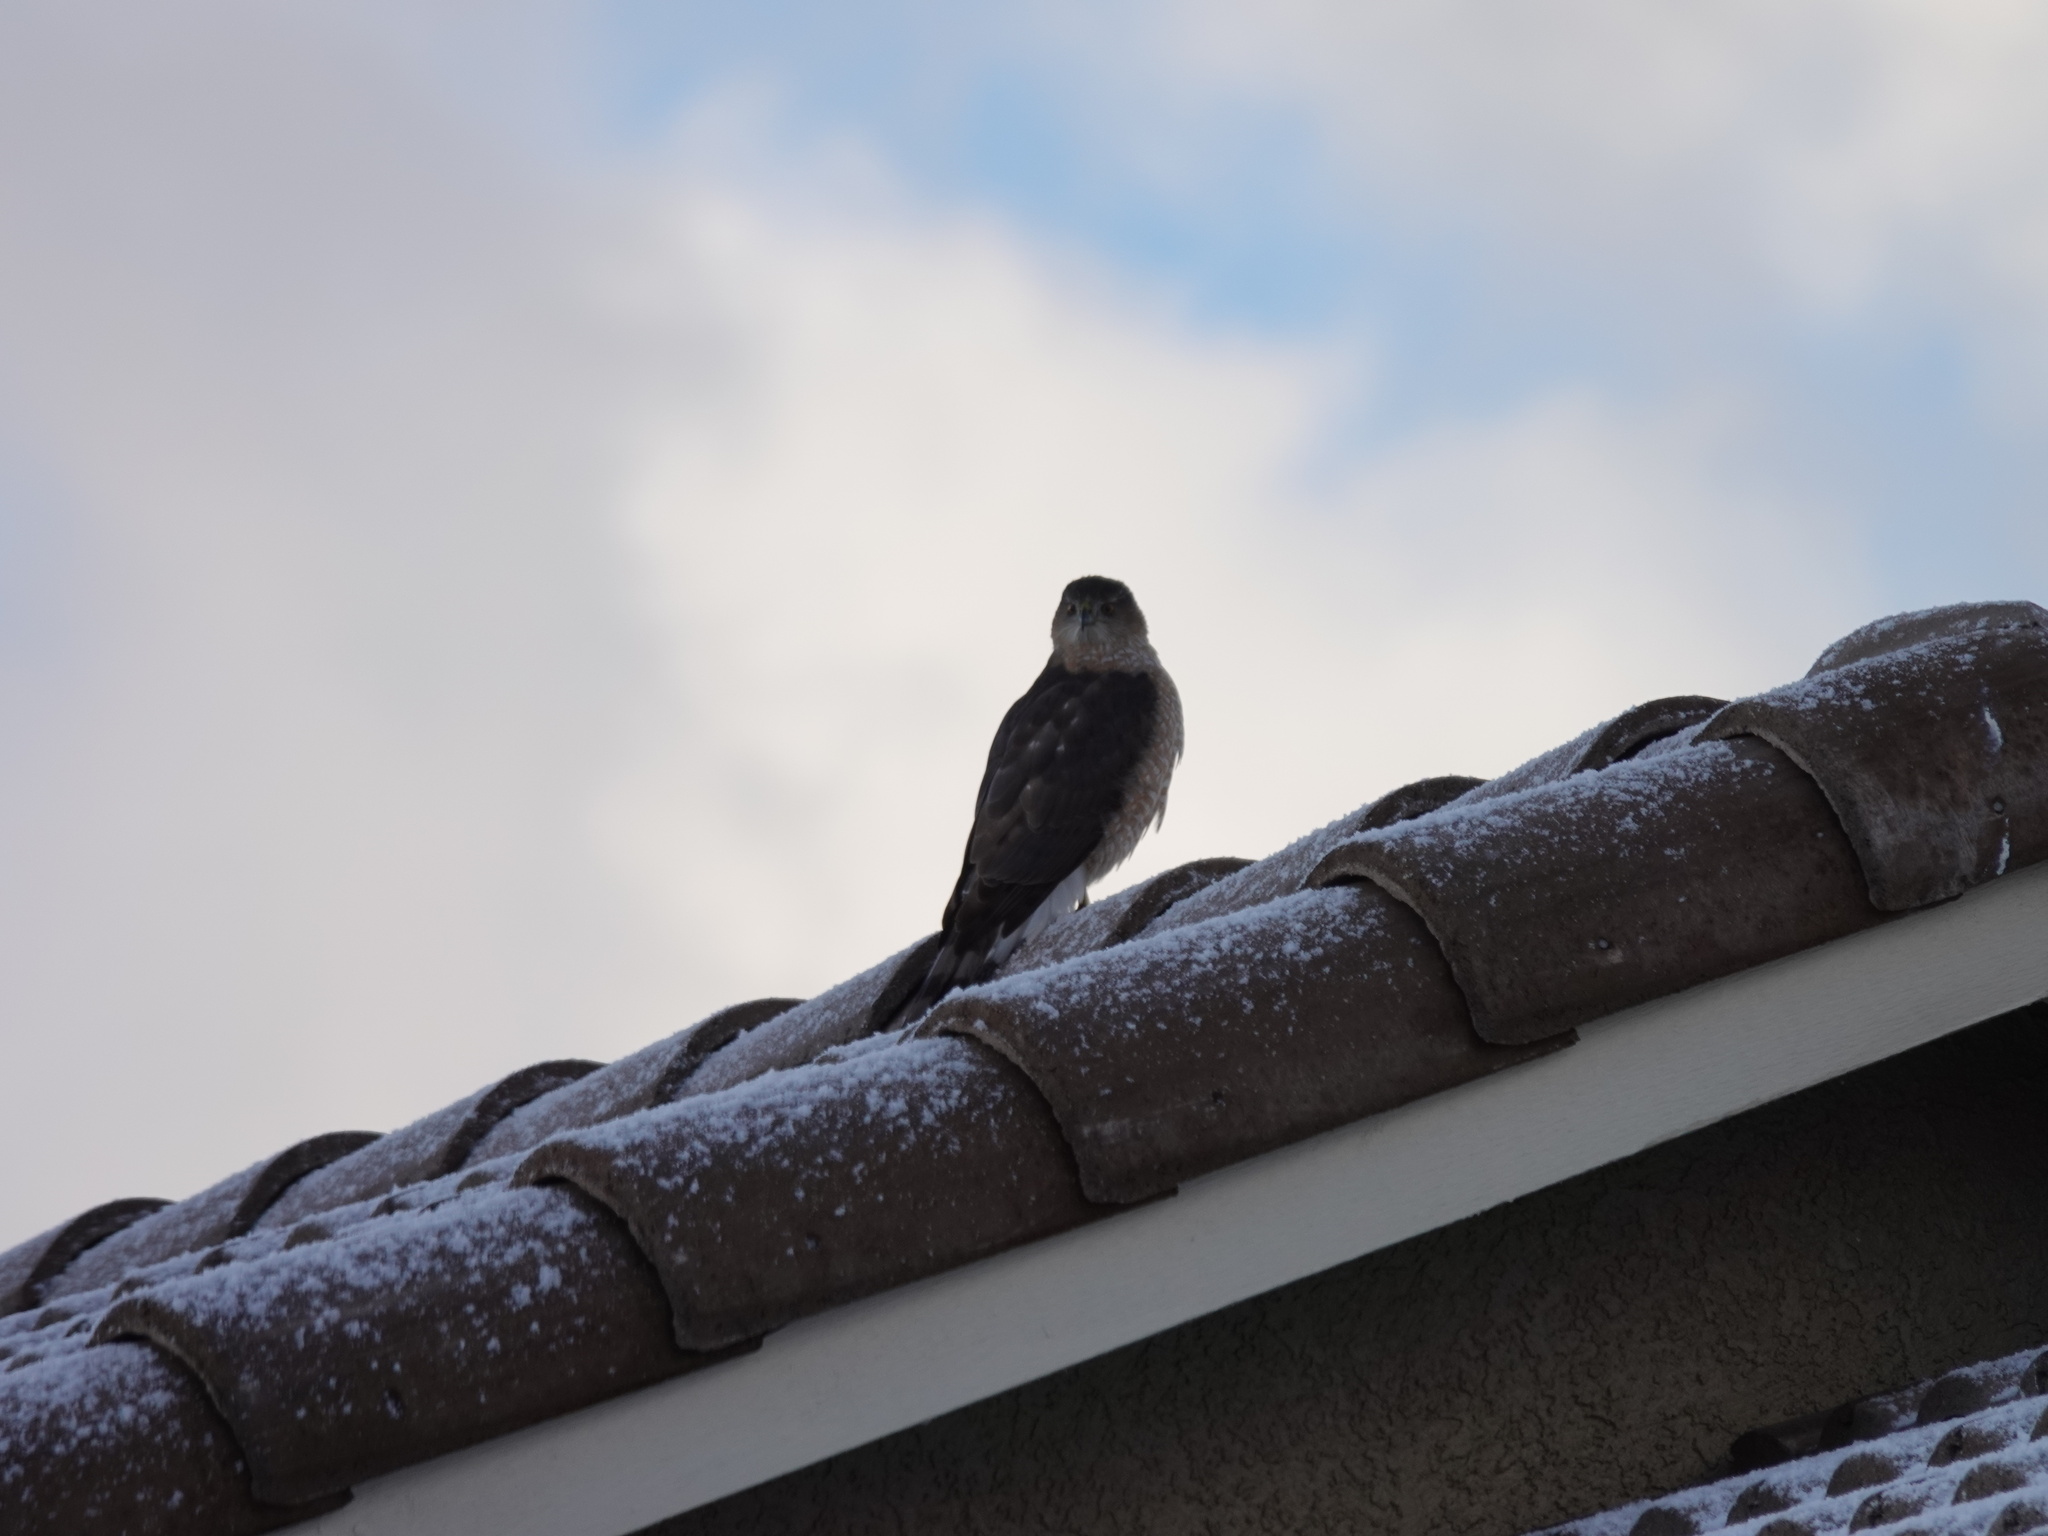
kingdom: Animalia
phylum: Chordata
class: Aves
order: Accipitriformes
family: Accipitridae
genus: Accipiter
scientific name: Accipiter cooperii
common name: Cooper's hawk
